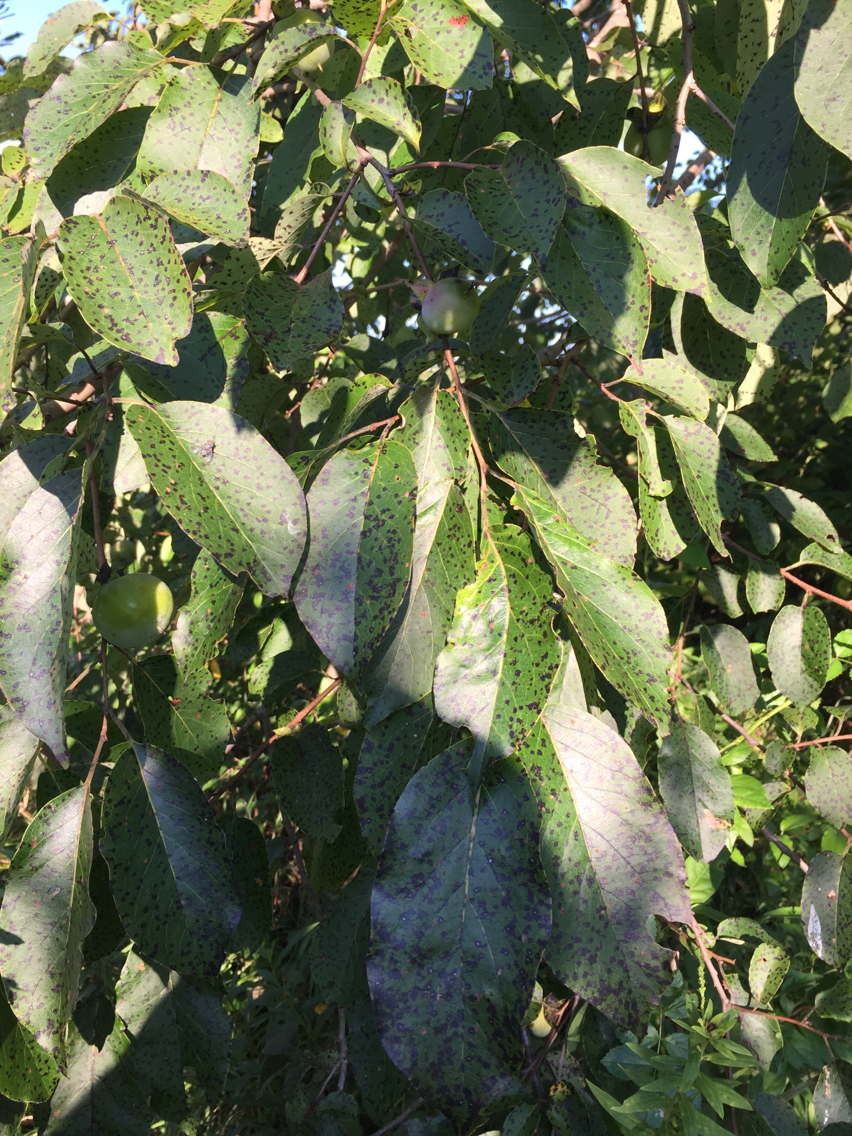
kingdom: Plantae
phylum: Tracheophyta
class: Magnoliopsida
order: Ericales
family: Ebenaceae
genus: Diospyros
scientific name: Diospyros virginiana
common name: Persimmon
